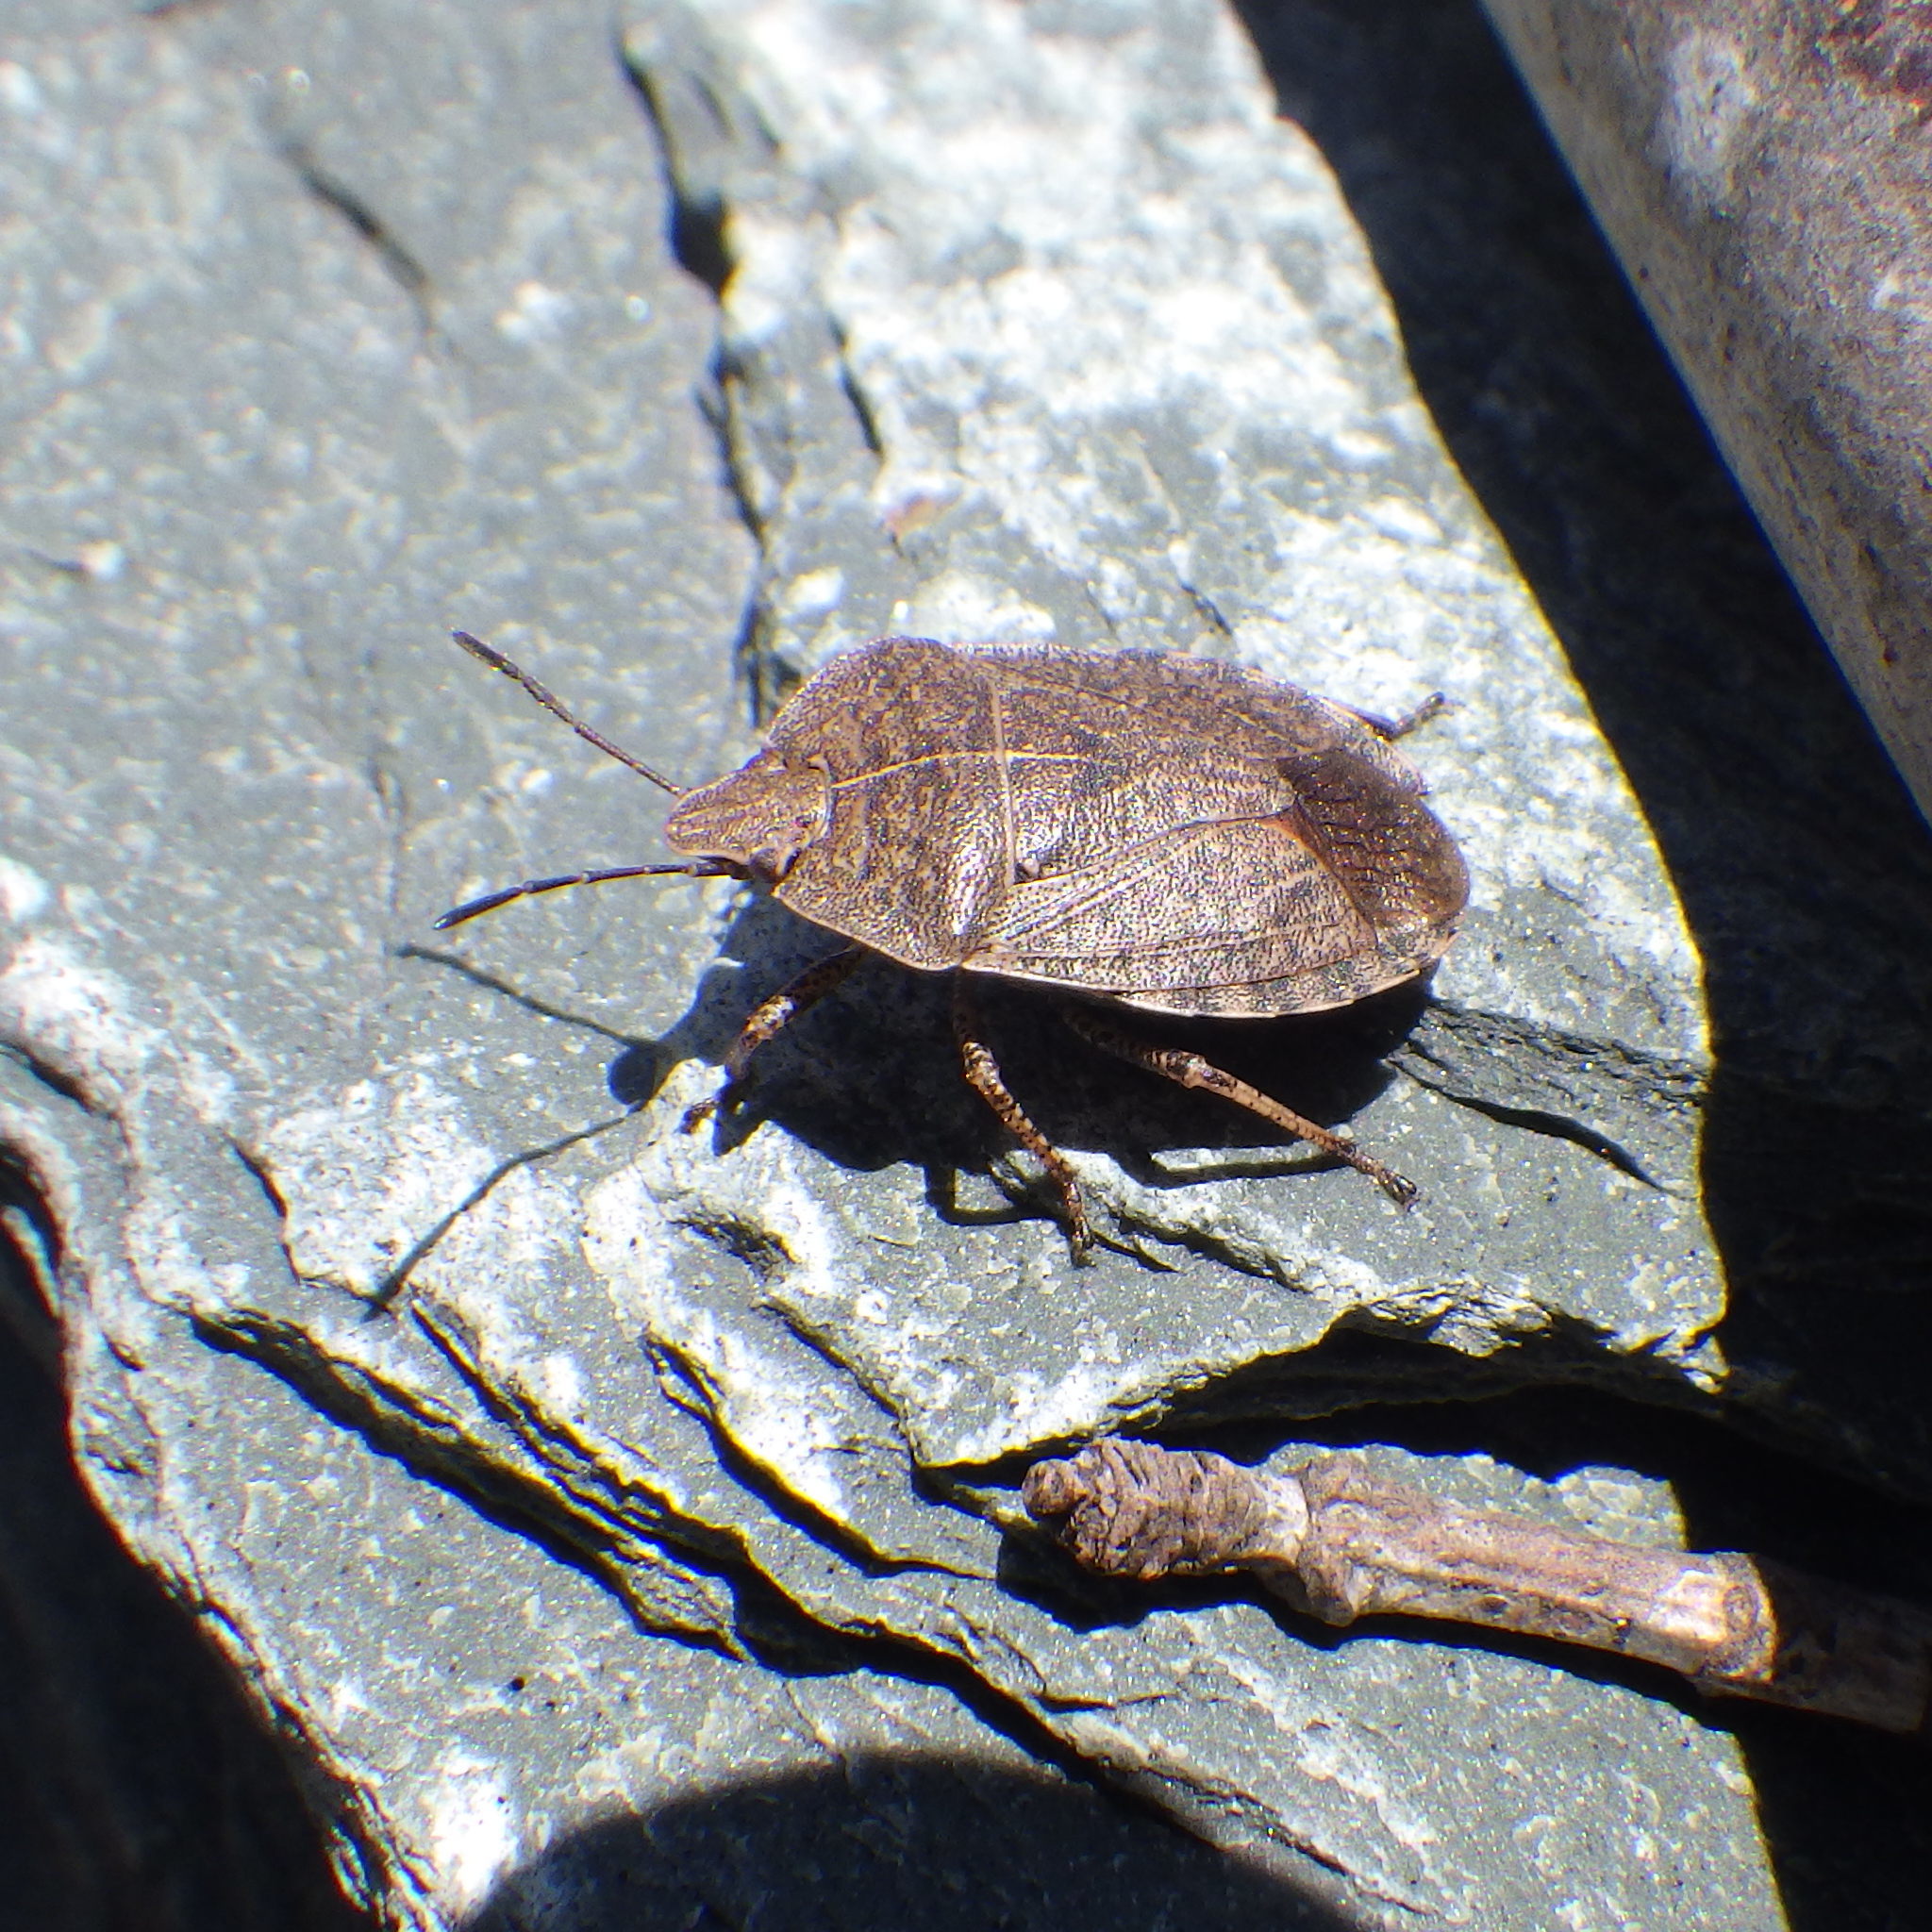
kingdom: Animalia
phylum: Arthropoda
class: Insecta
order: Hemiptera
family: Pentatomidae
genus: Menecles
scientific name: Menecles insertus
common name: Elf shoe stink bug
